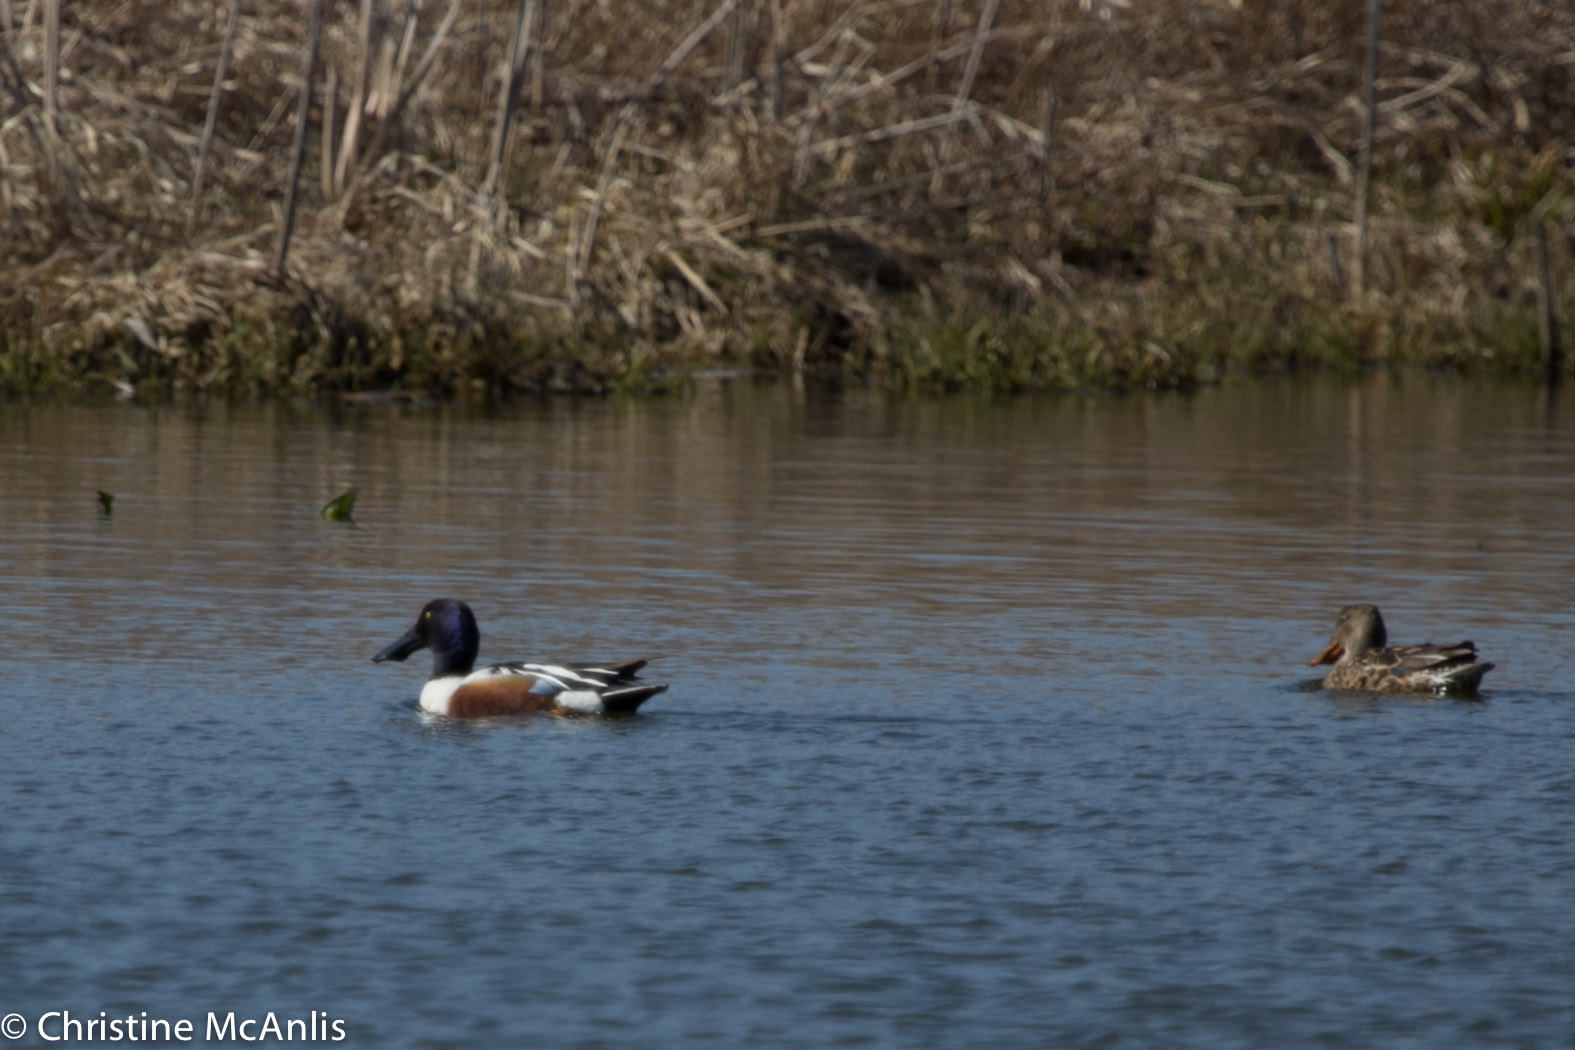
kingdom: Animalia
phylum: Chordata
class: Aves
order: Anseriformes
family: Anatidae
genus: Spatula
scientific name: Spatula clypeata
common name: Northern shoveler
